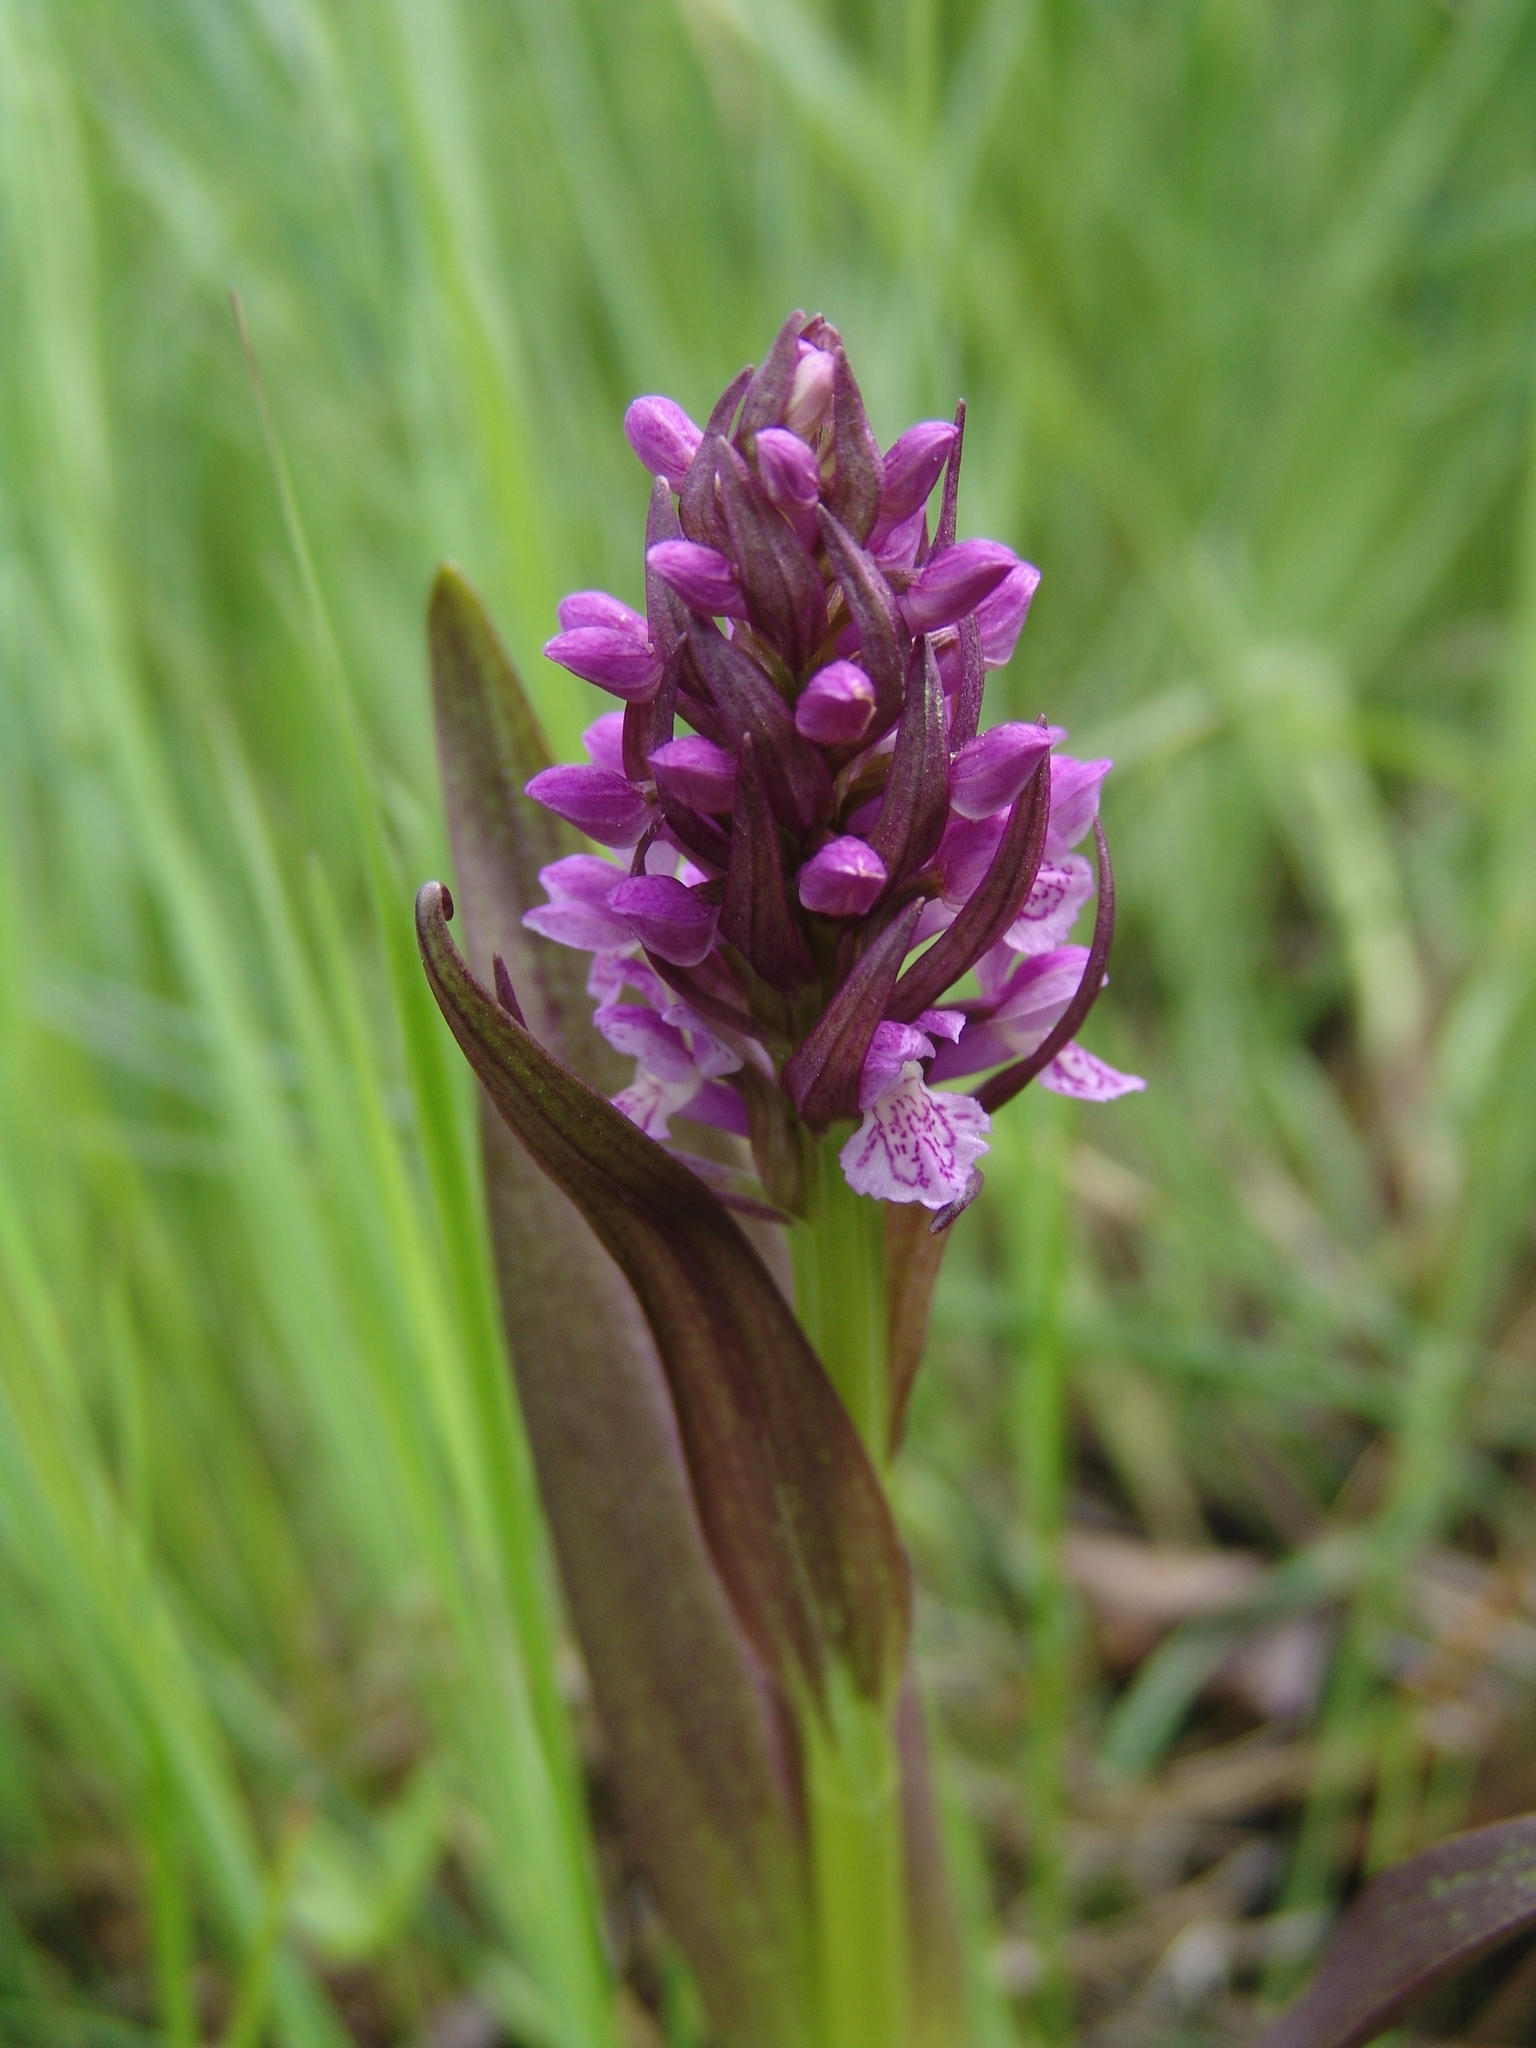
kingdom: Plantae
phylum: Tracheophyta
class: Liliopsida
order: Asparagales
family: Orchidaceae
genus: Dactylorhiza
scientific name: Dactylorhiza incarnata
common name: Early marsh-orchid
